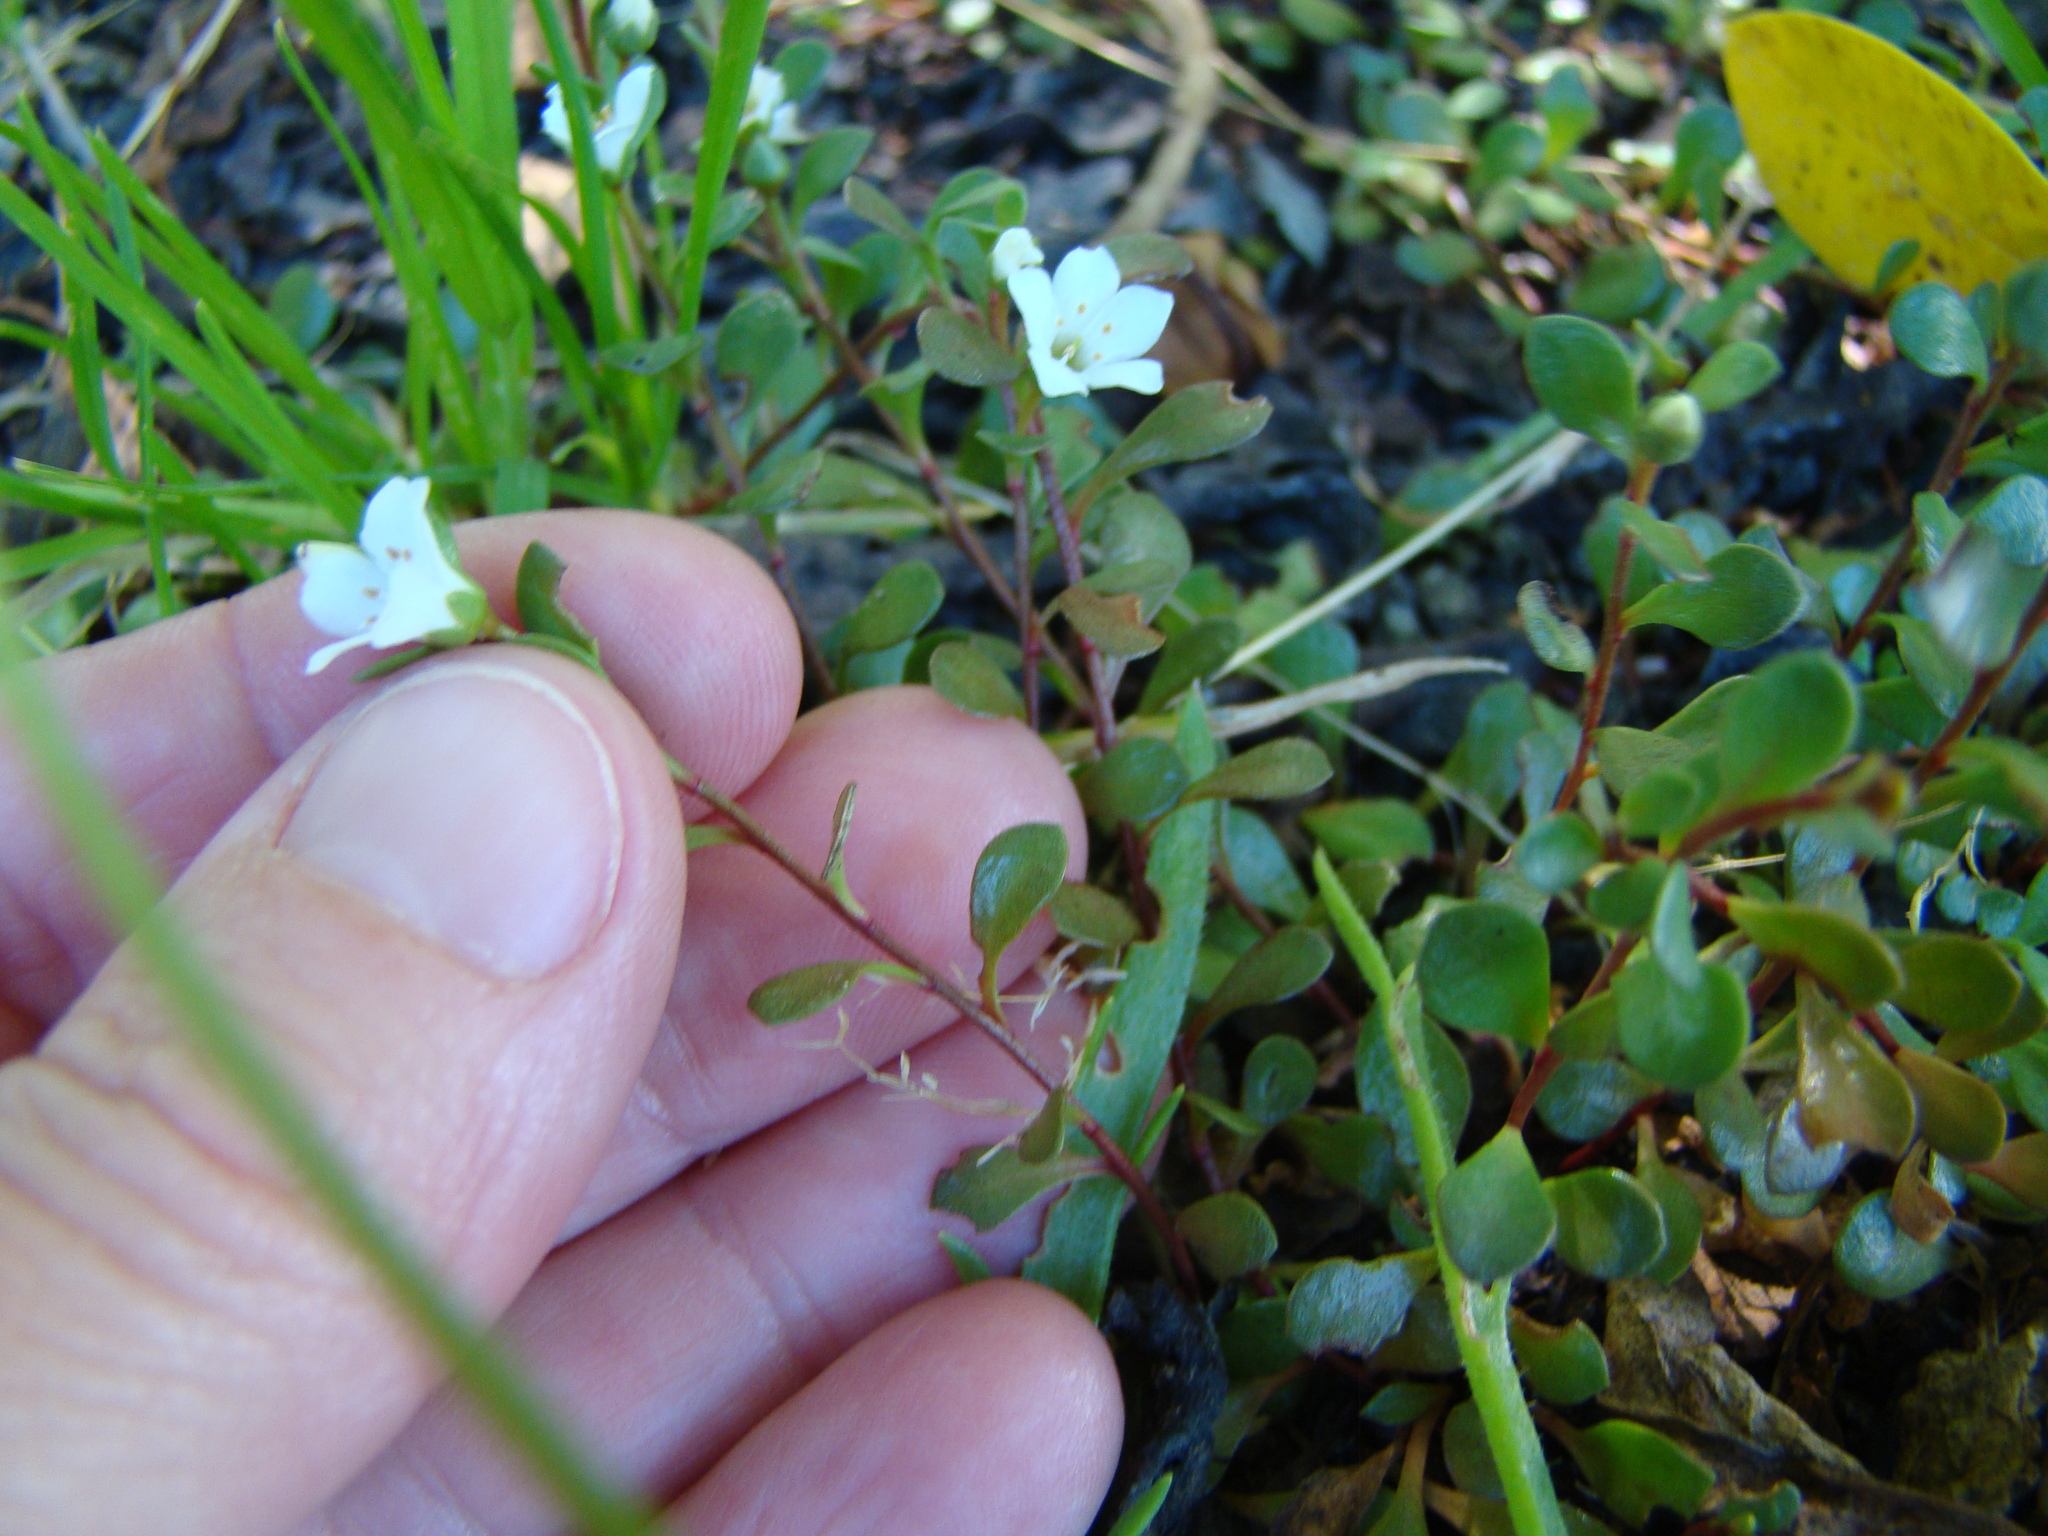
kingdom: Plantae
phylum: Tracheophyta
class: Magnoliopsida
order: Ericales
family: Primulaceae
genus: Samolus
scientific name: Samolus repens
